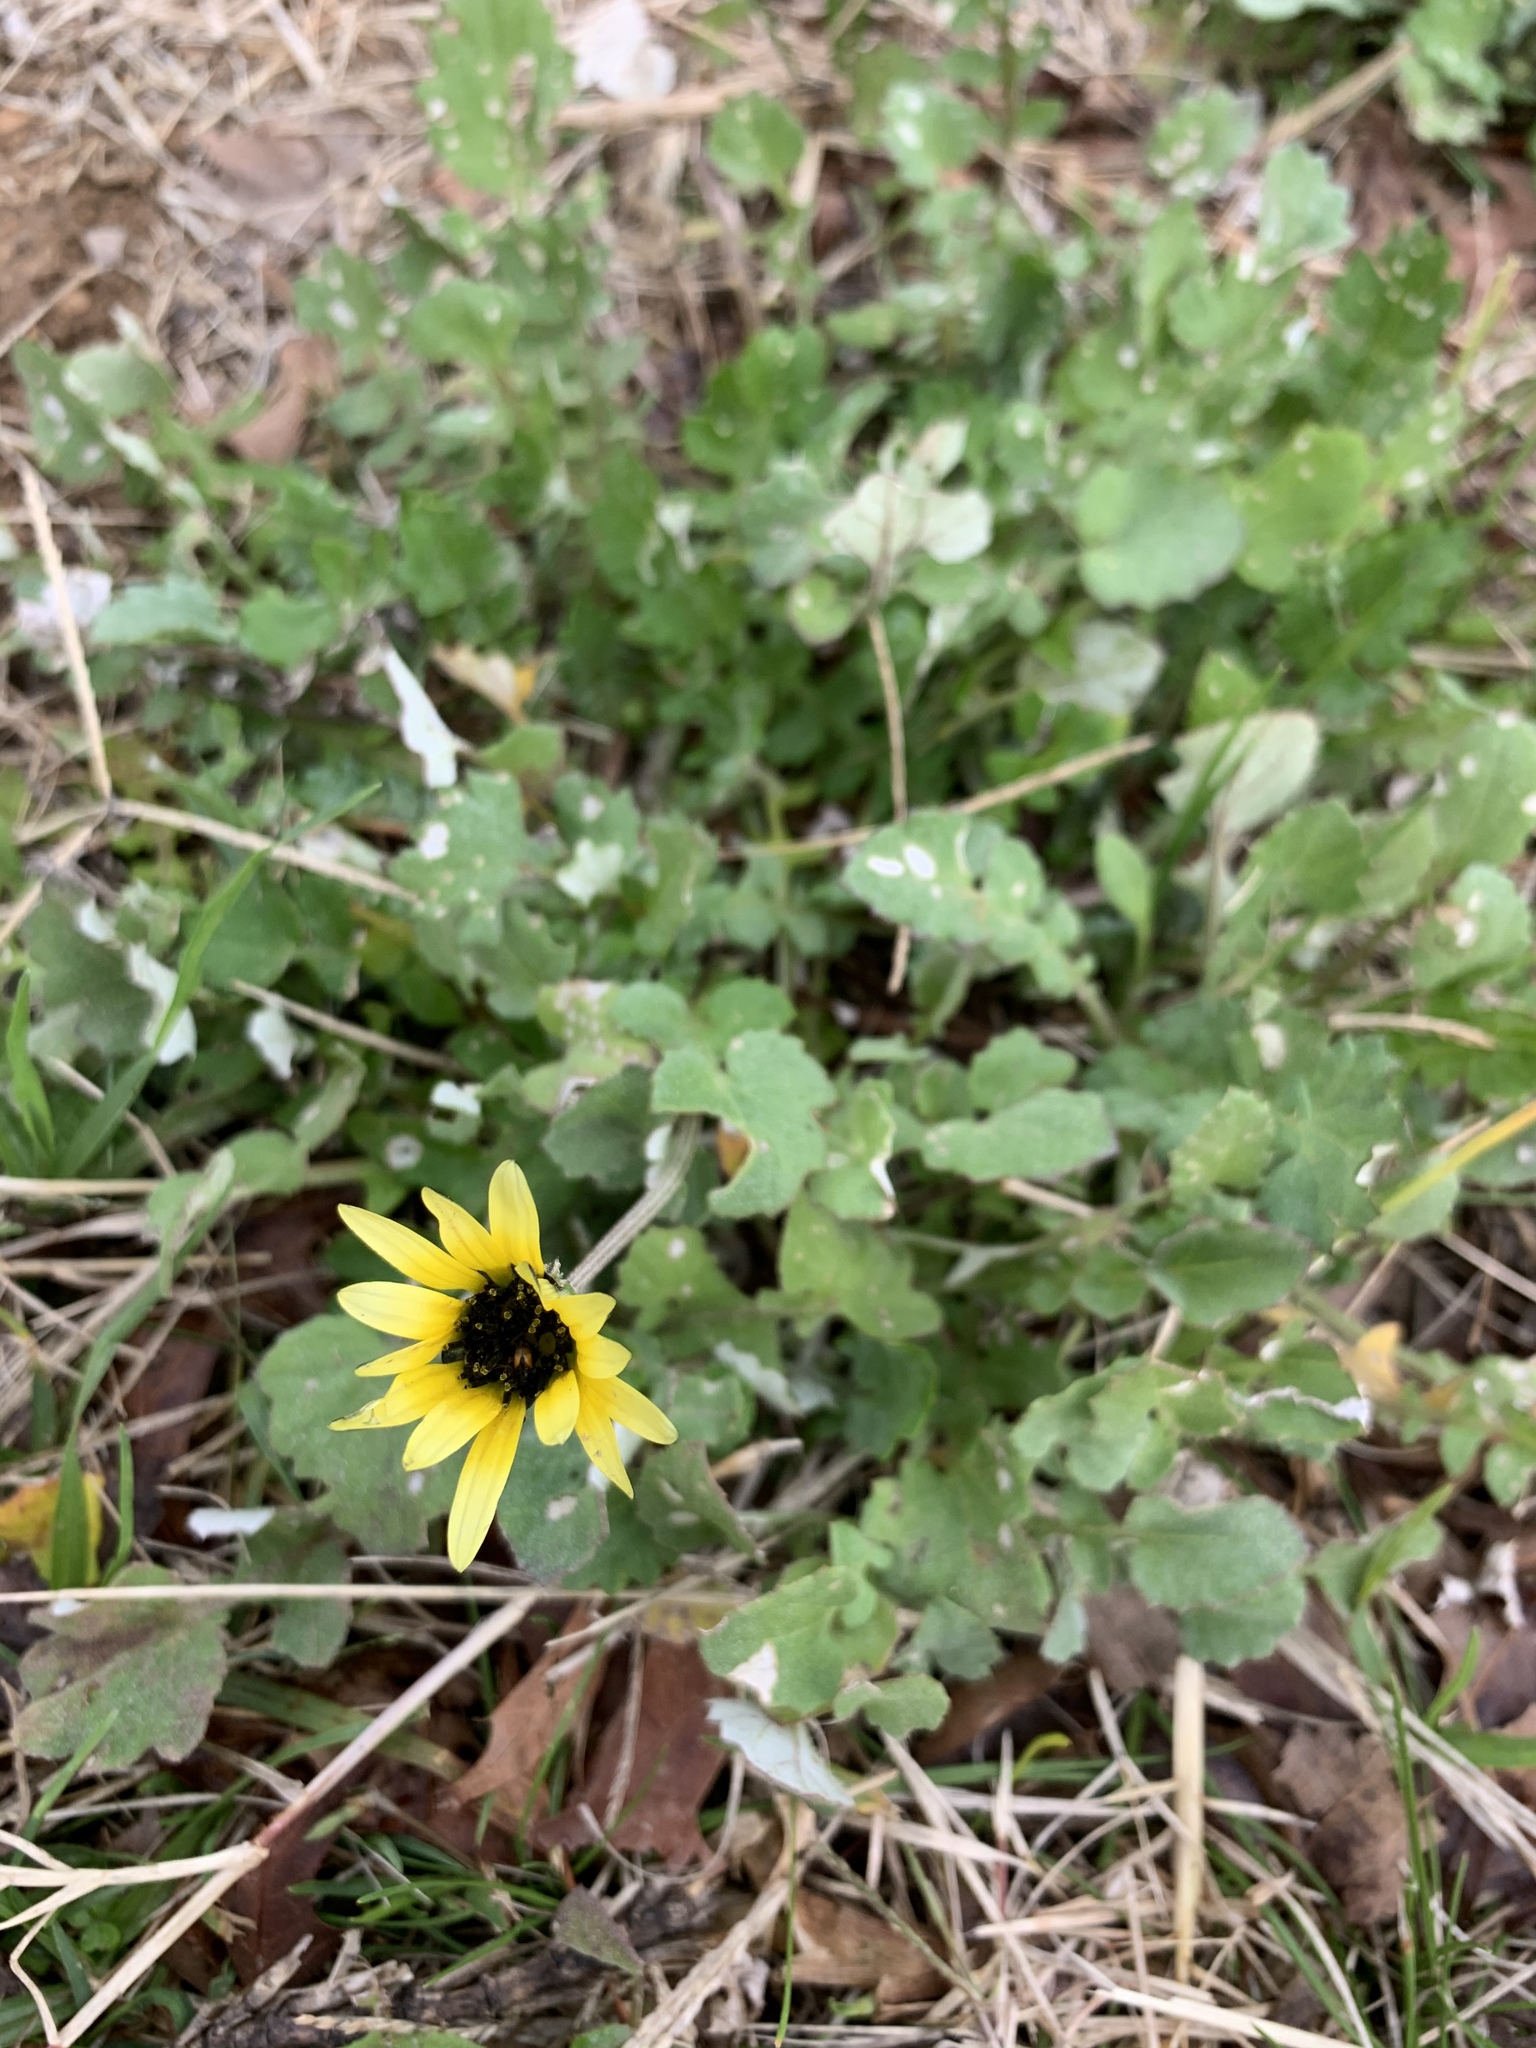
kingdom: Plantae
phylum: Tracheophyta
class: Magnoliopsida
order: Asterales
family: Asteraceae
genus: Arctotheca
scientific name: Arctotheca calendula
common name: Capeweed
